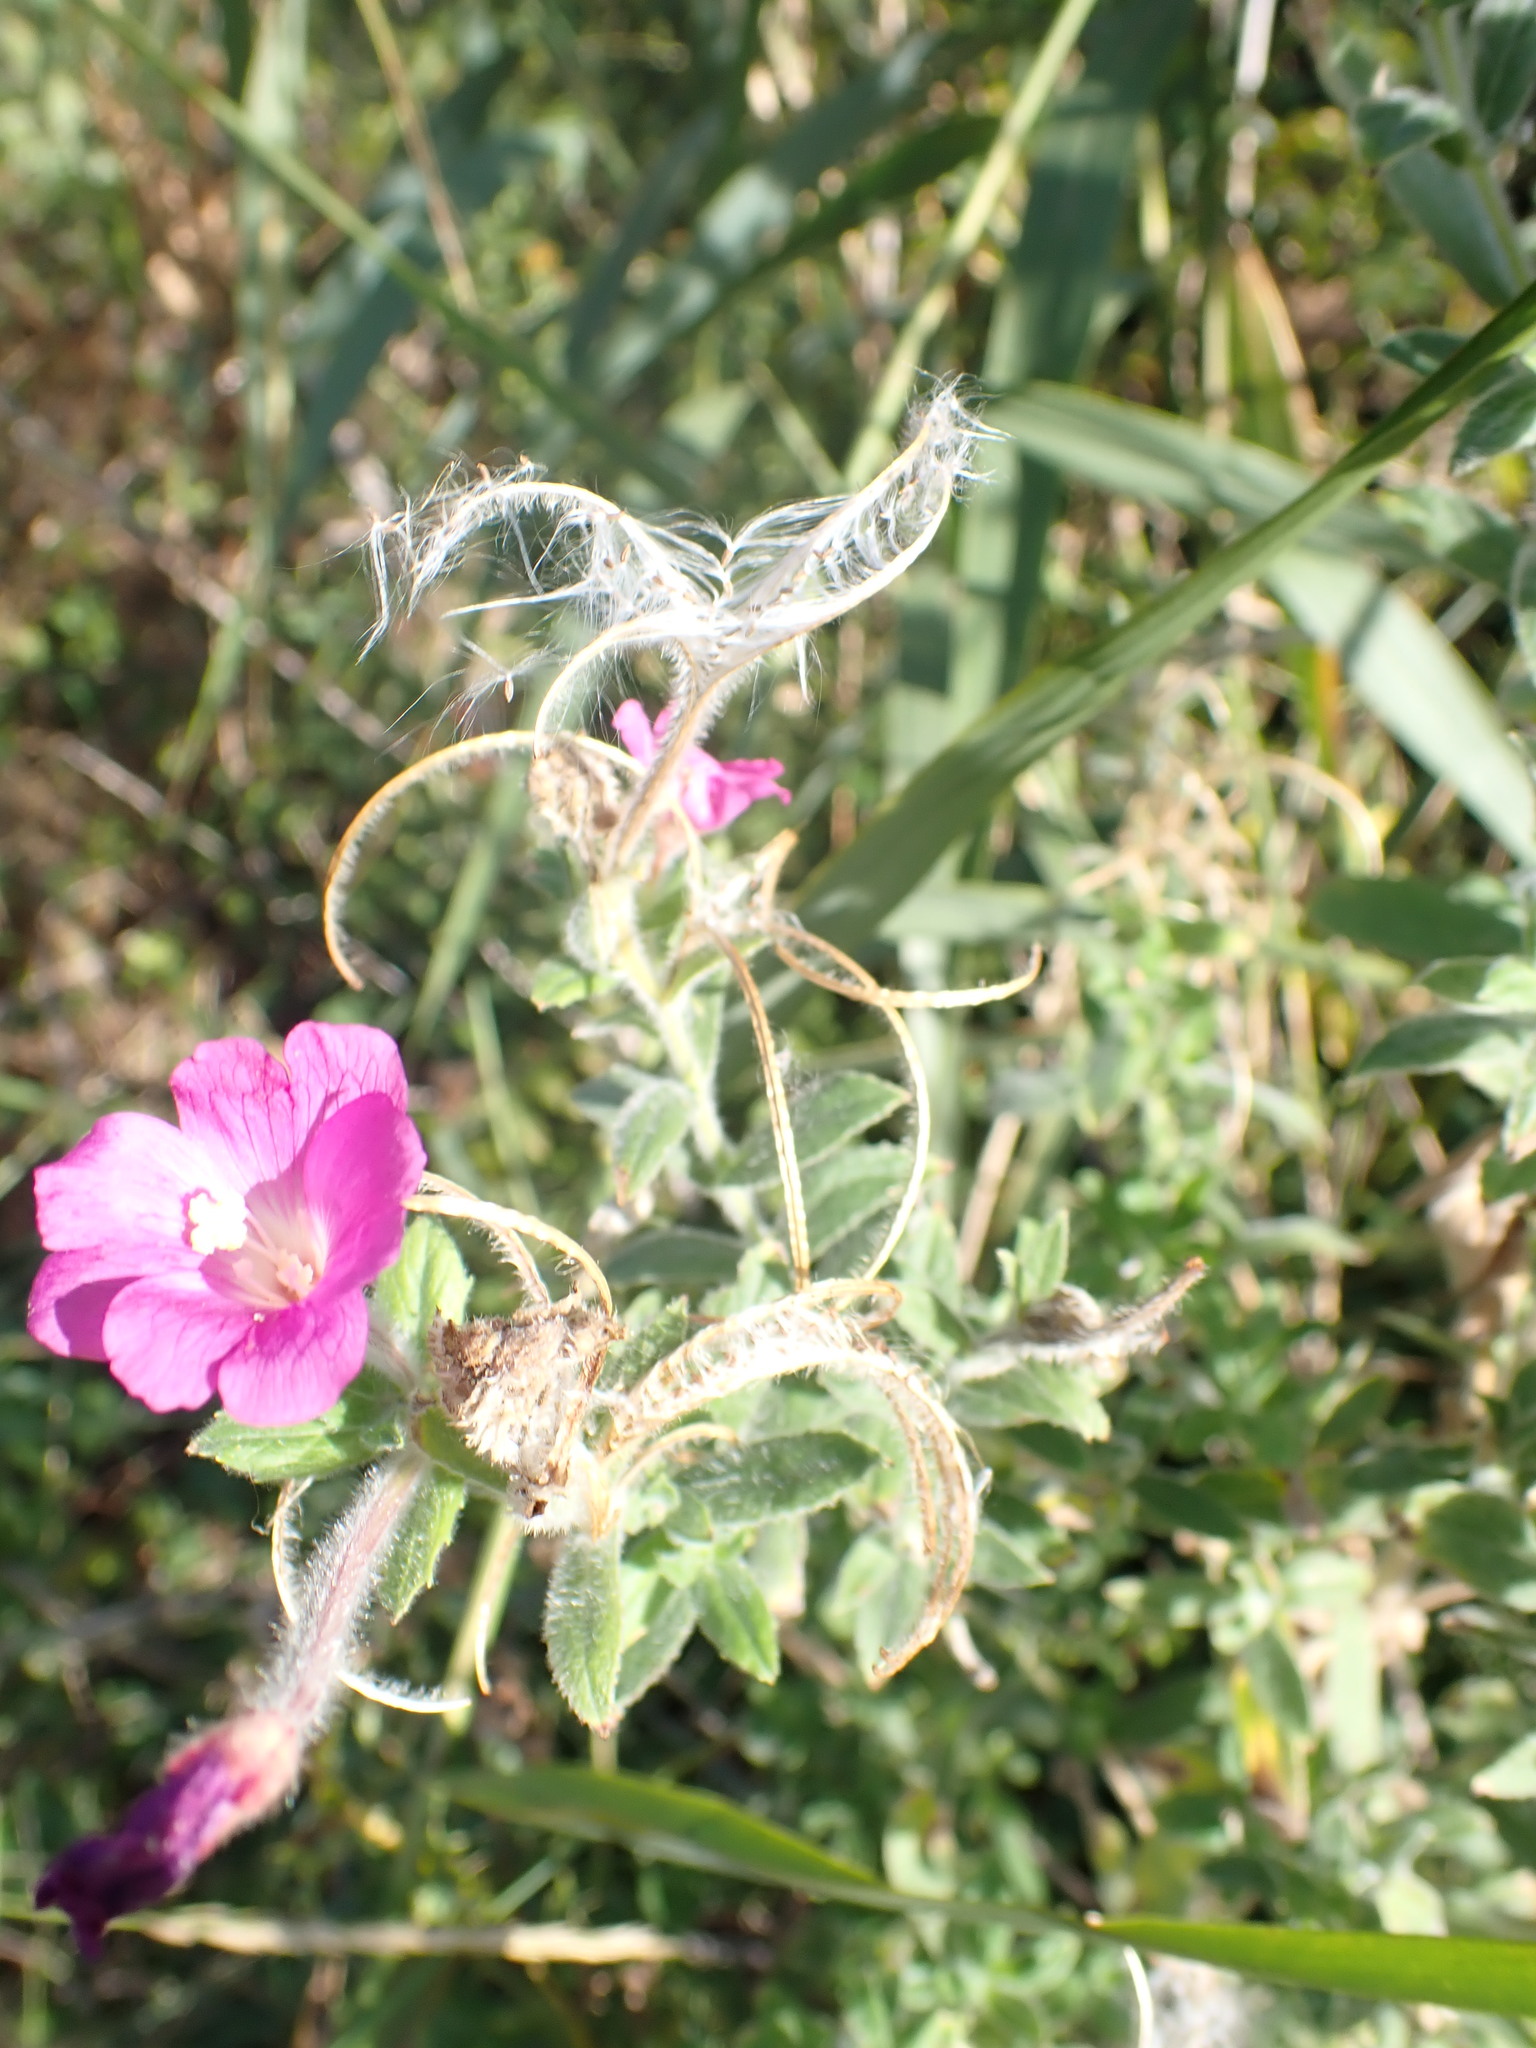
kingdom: Plantae
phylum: Tracheophyta
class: Magnoliopsida
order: Myrtales
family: Onagraceae
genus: Epilobium
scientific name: Epilobium hirsutum
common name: Great willowherb
